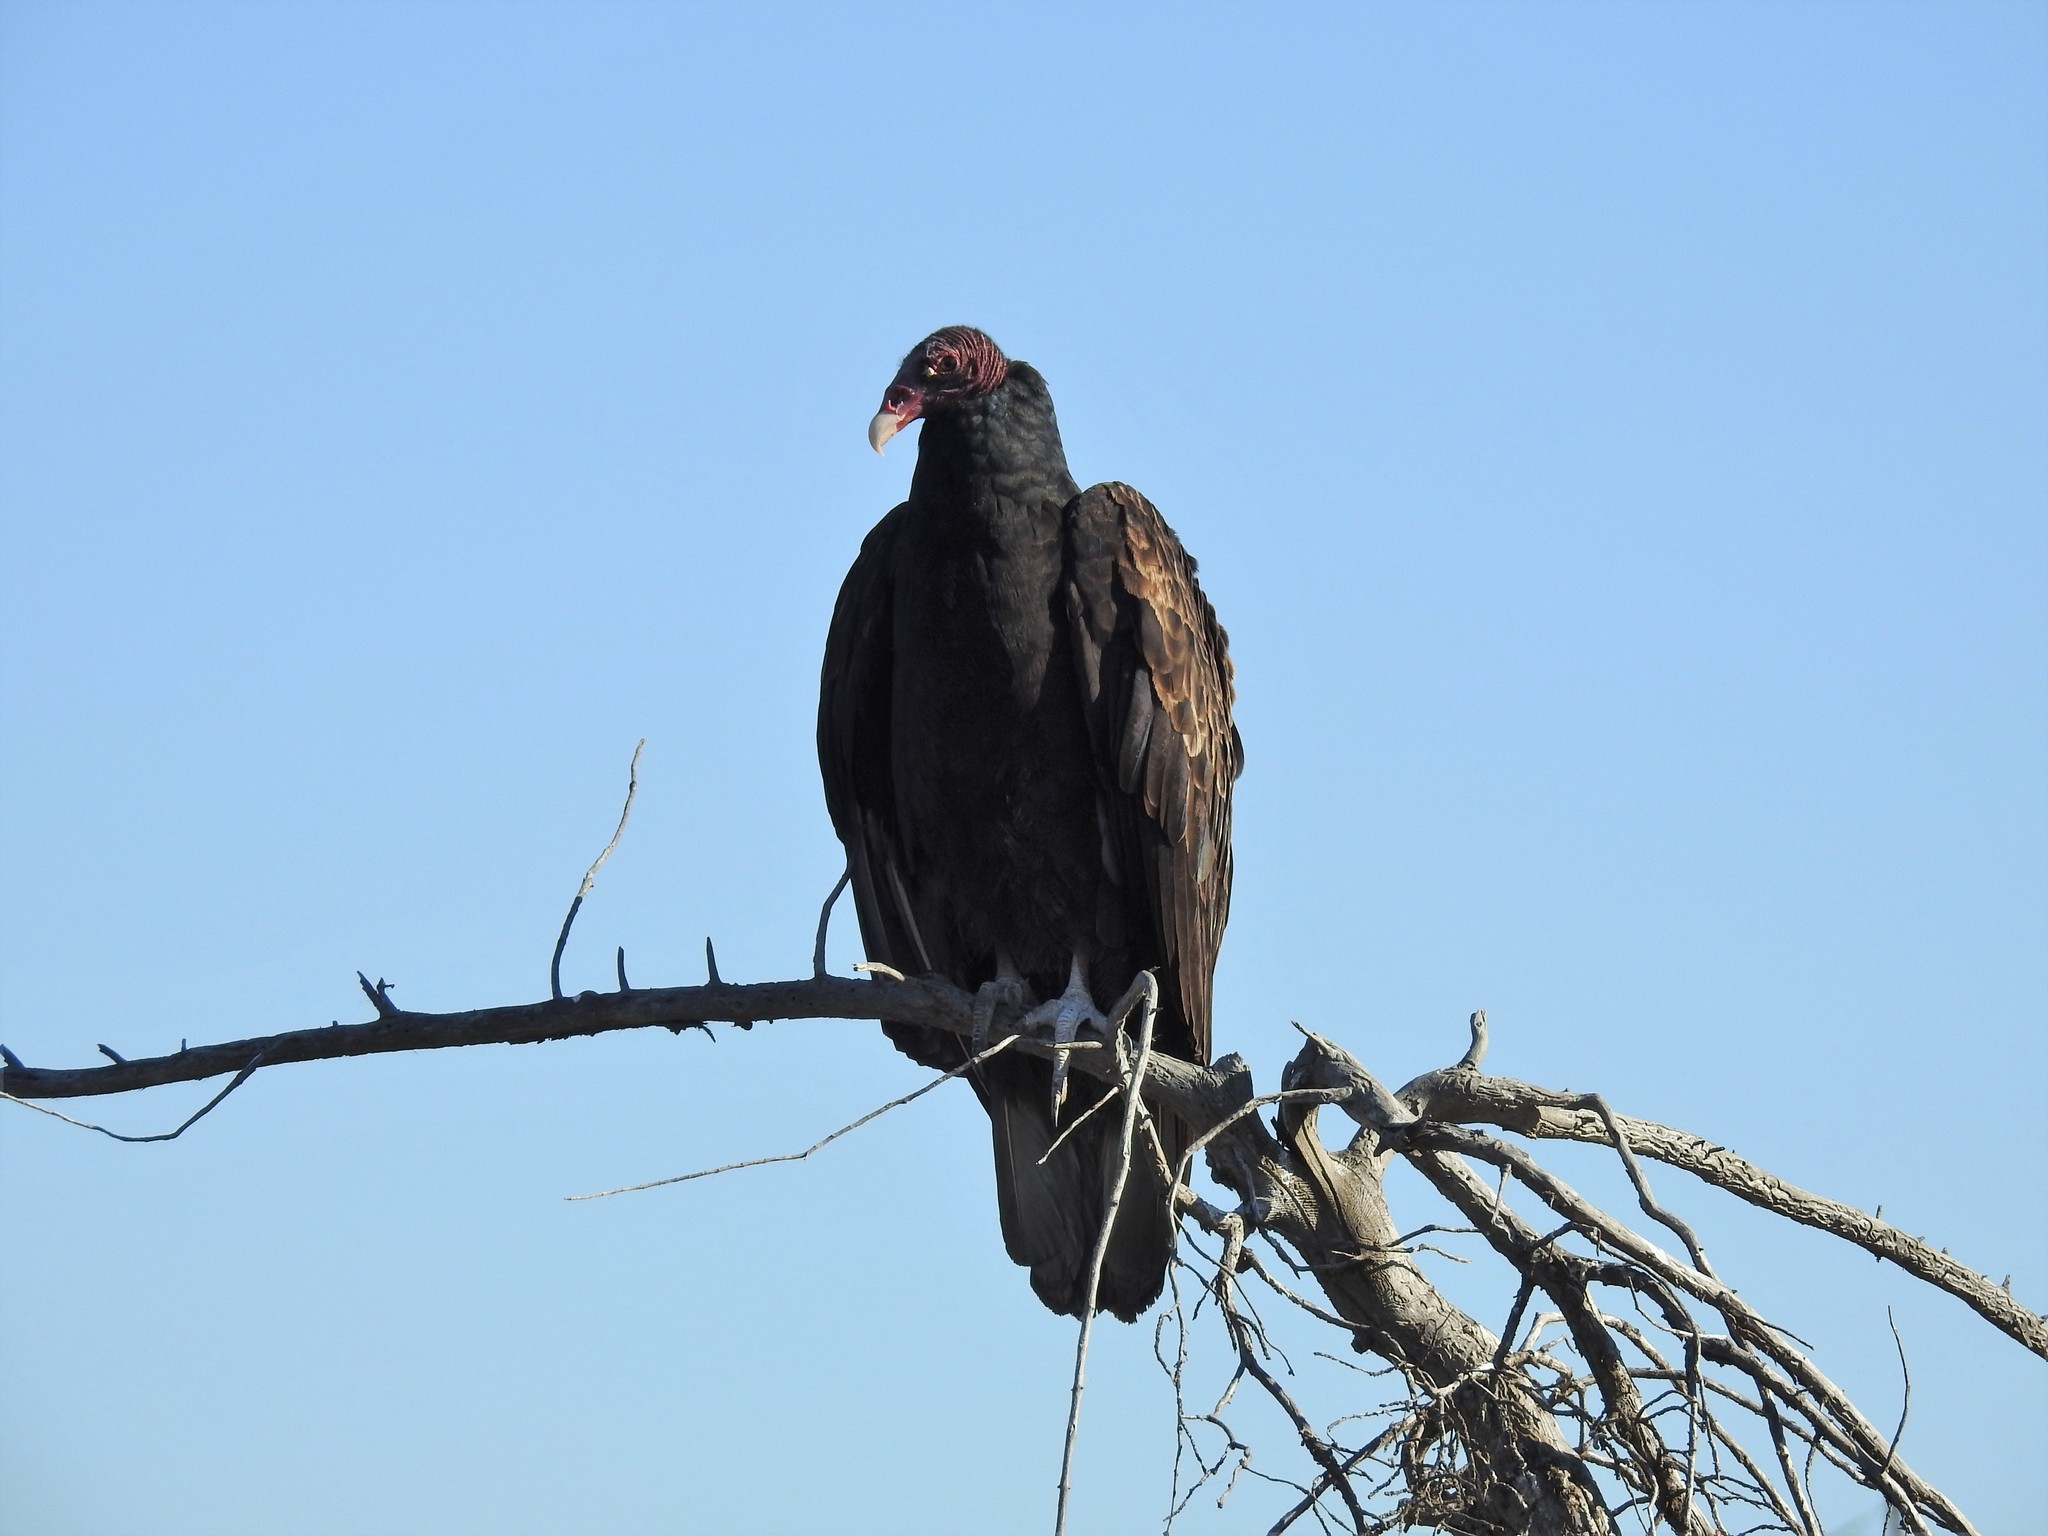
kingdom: Animalia
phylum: Chordata
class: Aves
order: Accipitriformes
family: Cathartidae
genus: Cathartes
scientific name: Cathartes aura
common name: Turkey vulture
